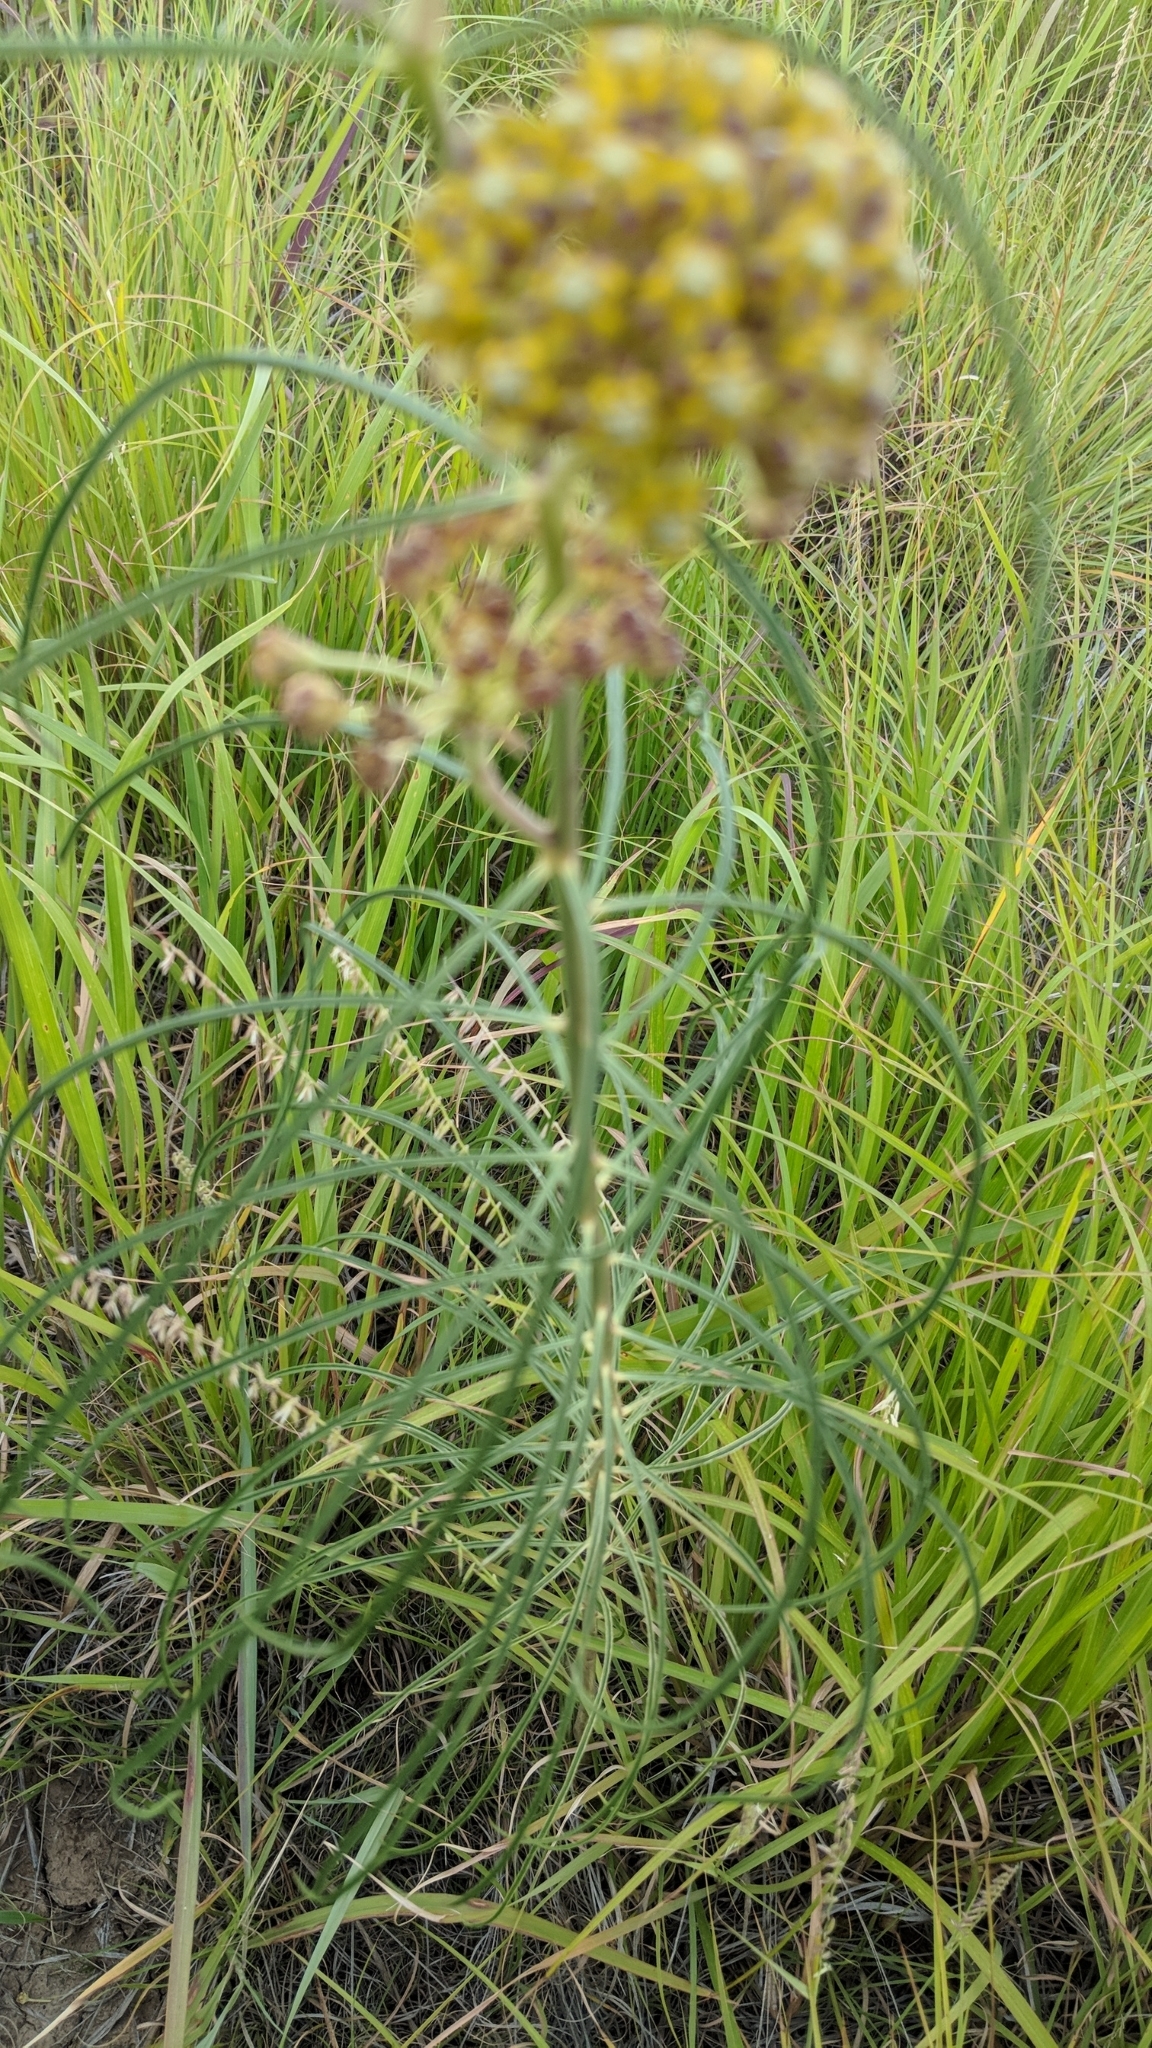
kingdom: Plantae
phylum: Tracheophyta
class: Magnoliopsida
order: Gentianales
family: Apocynaceae
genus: Asclepias
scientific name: Asclepias engelmanniana
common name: Engelmann's milkweed
